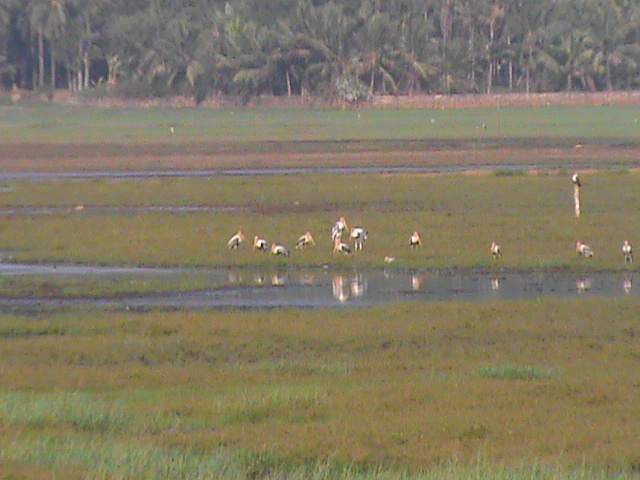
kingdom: Animalia
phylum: Chordata
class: Aves
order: Ciconiiformes
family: Ciconiidae
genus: Mycteria
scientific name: Mycteria leucocephala
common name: Painted stork
